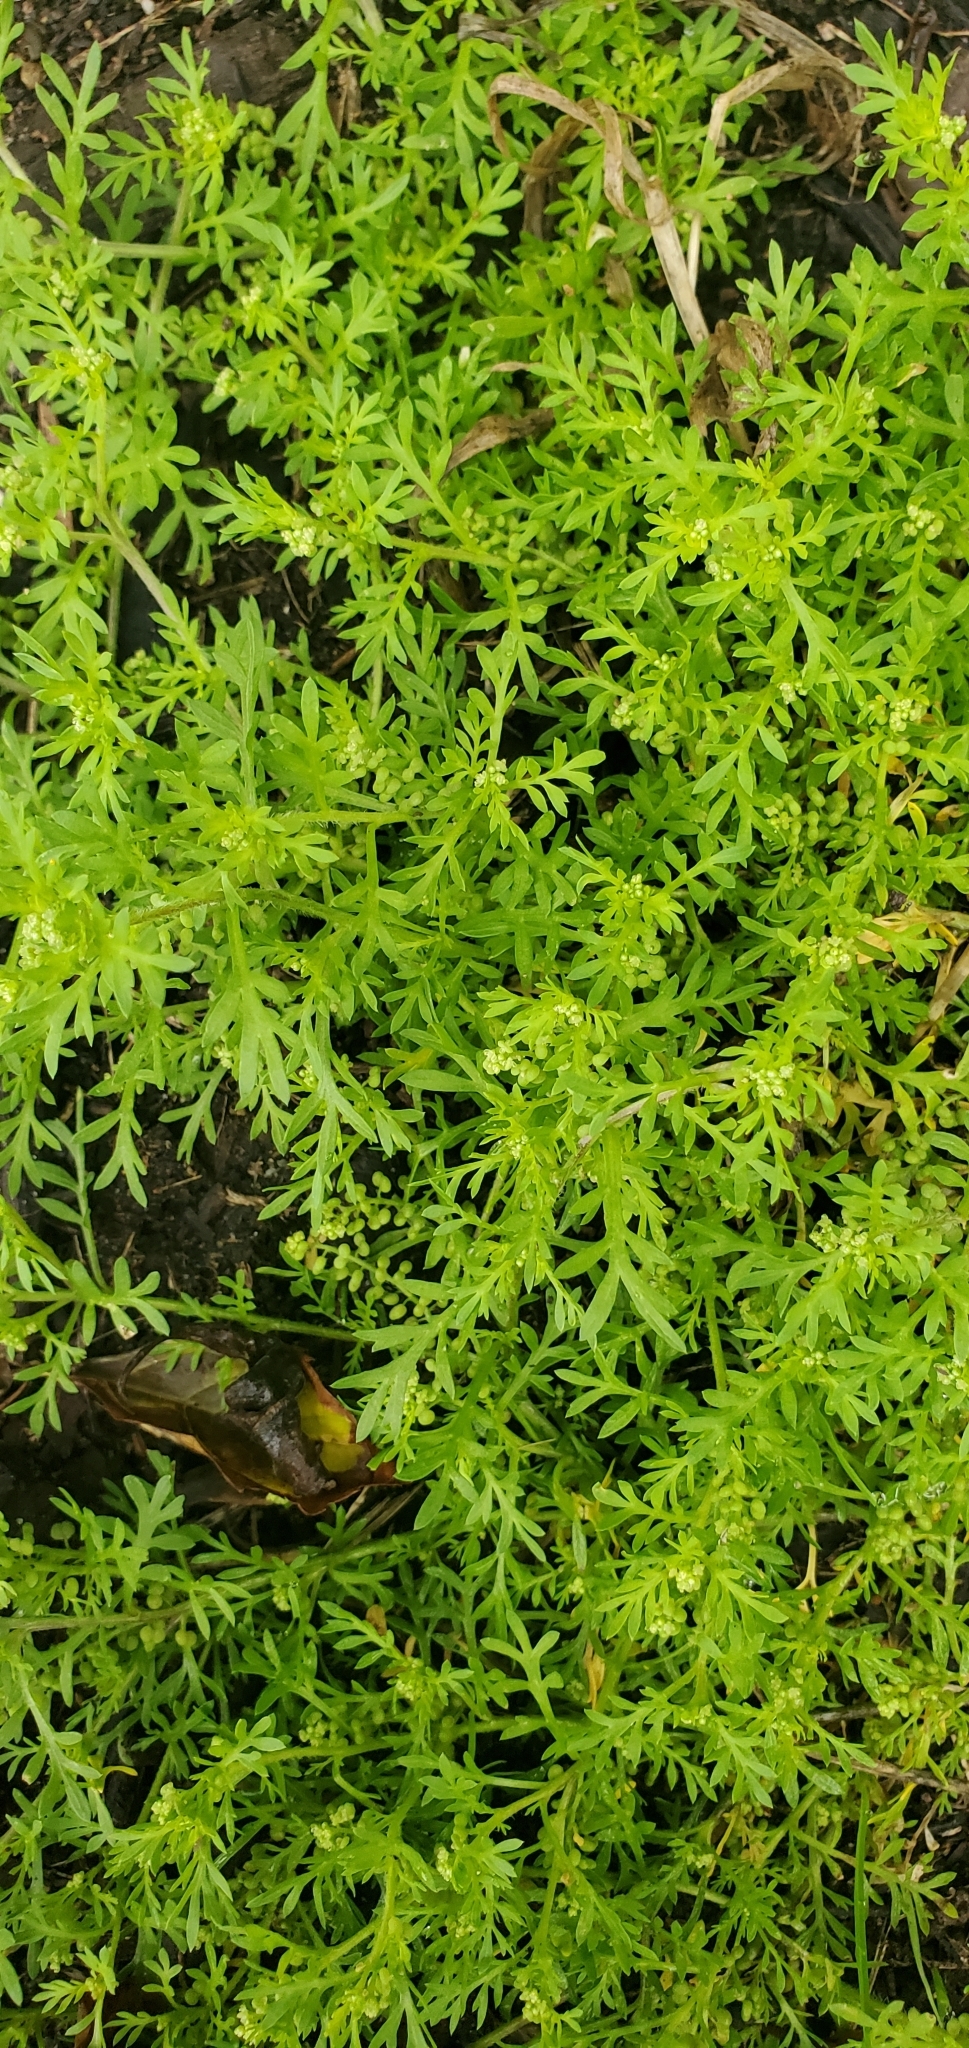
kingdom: Plantae
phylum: Tracheophyta
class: Magnoliopsida
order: Brassicales
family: Brassicaceae
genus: Lepidium
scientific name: Lepidium didymum
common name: Lesser swinecress
